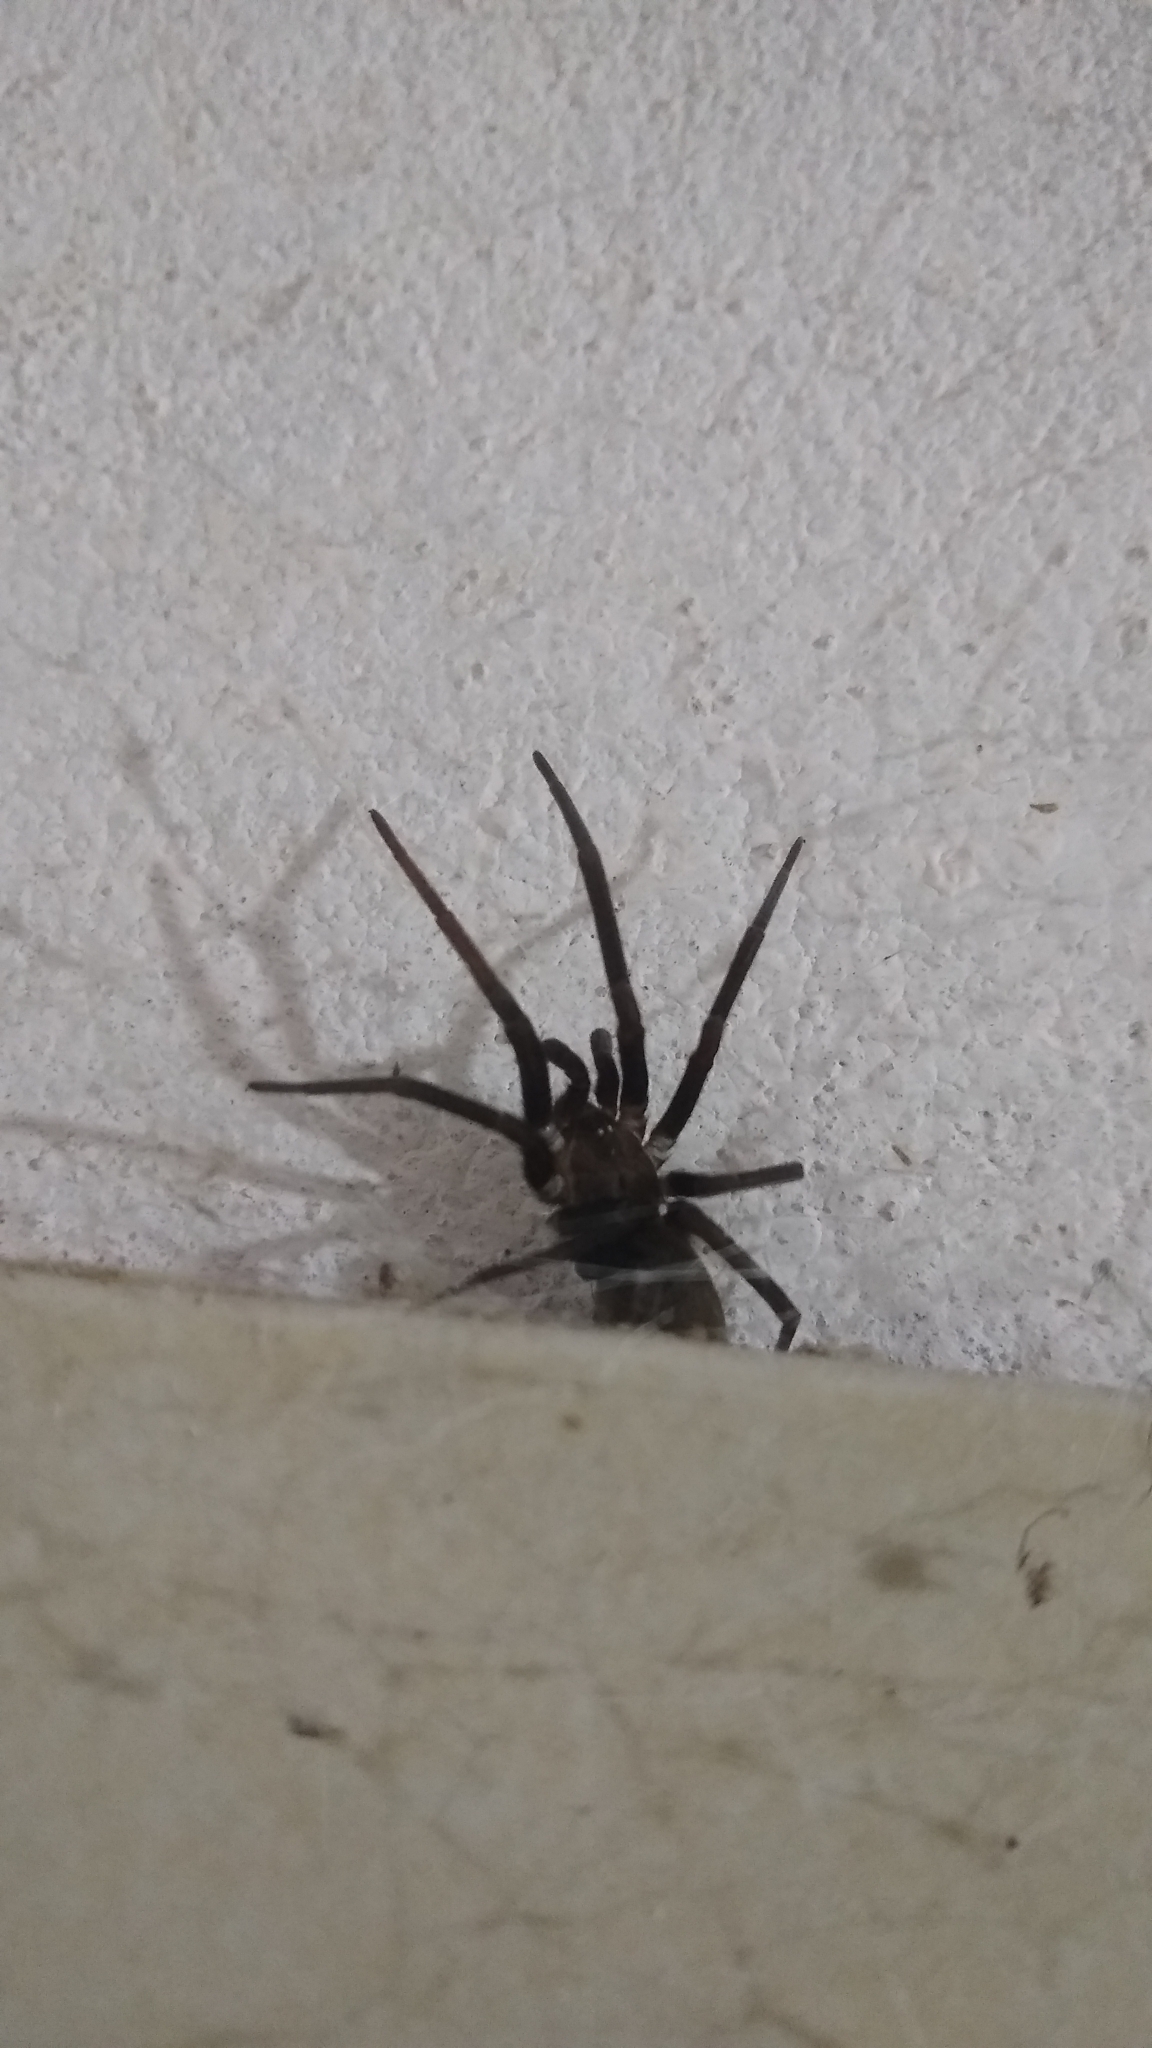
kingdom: Animalia
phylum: Arthropoda
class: Arachnida
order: Araneae
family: Filistatidae
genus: Kukulcania
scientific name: Kukulcania hibernalis
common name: Crevice weaver
